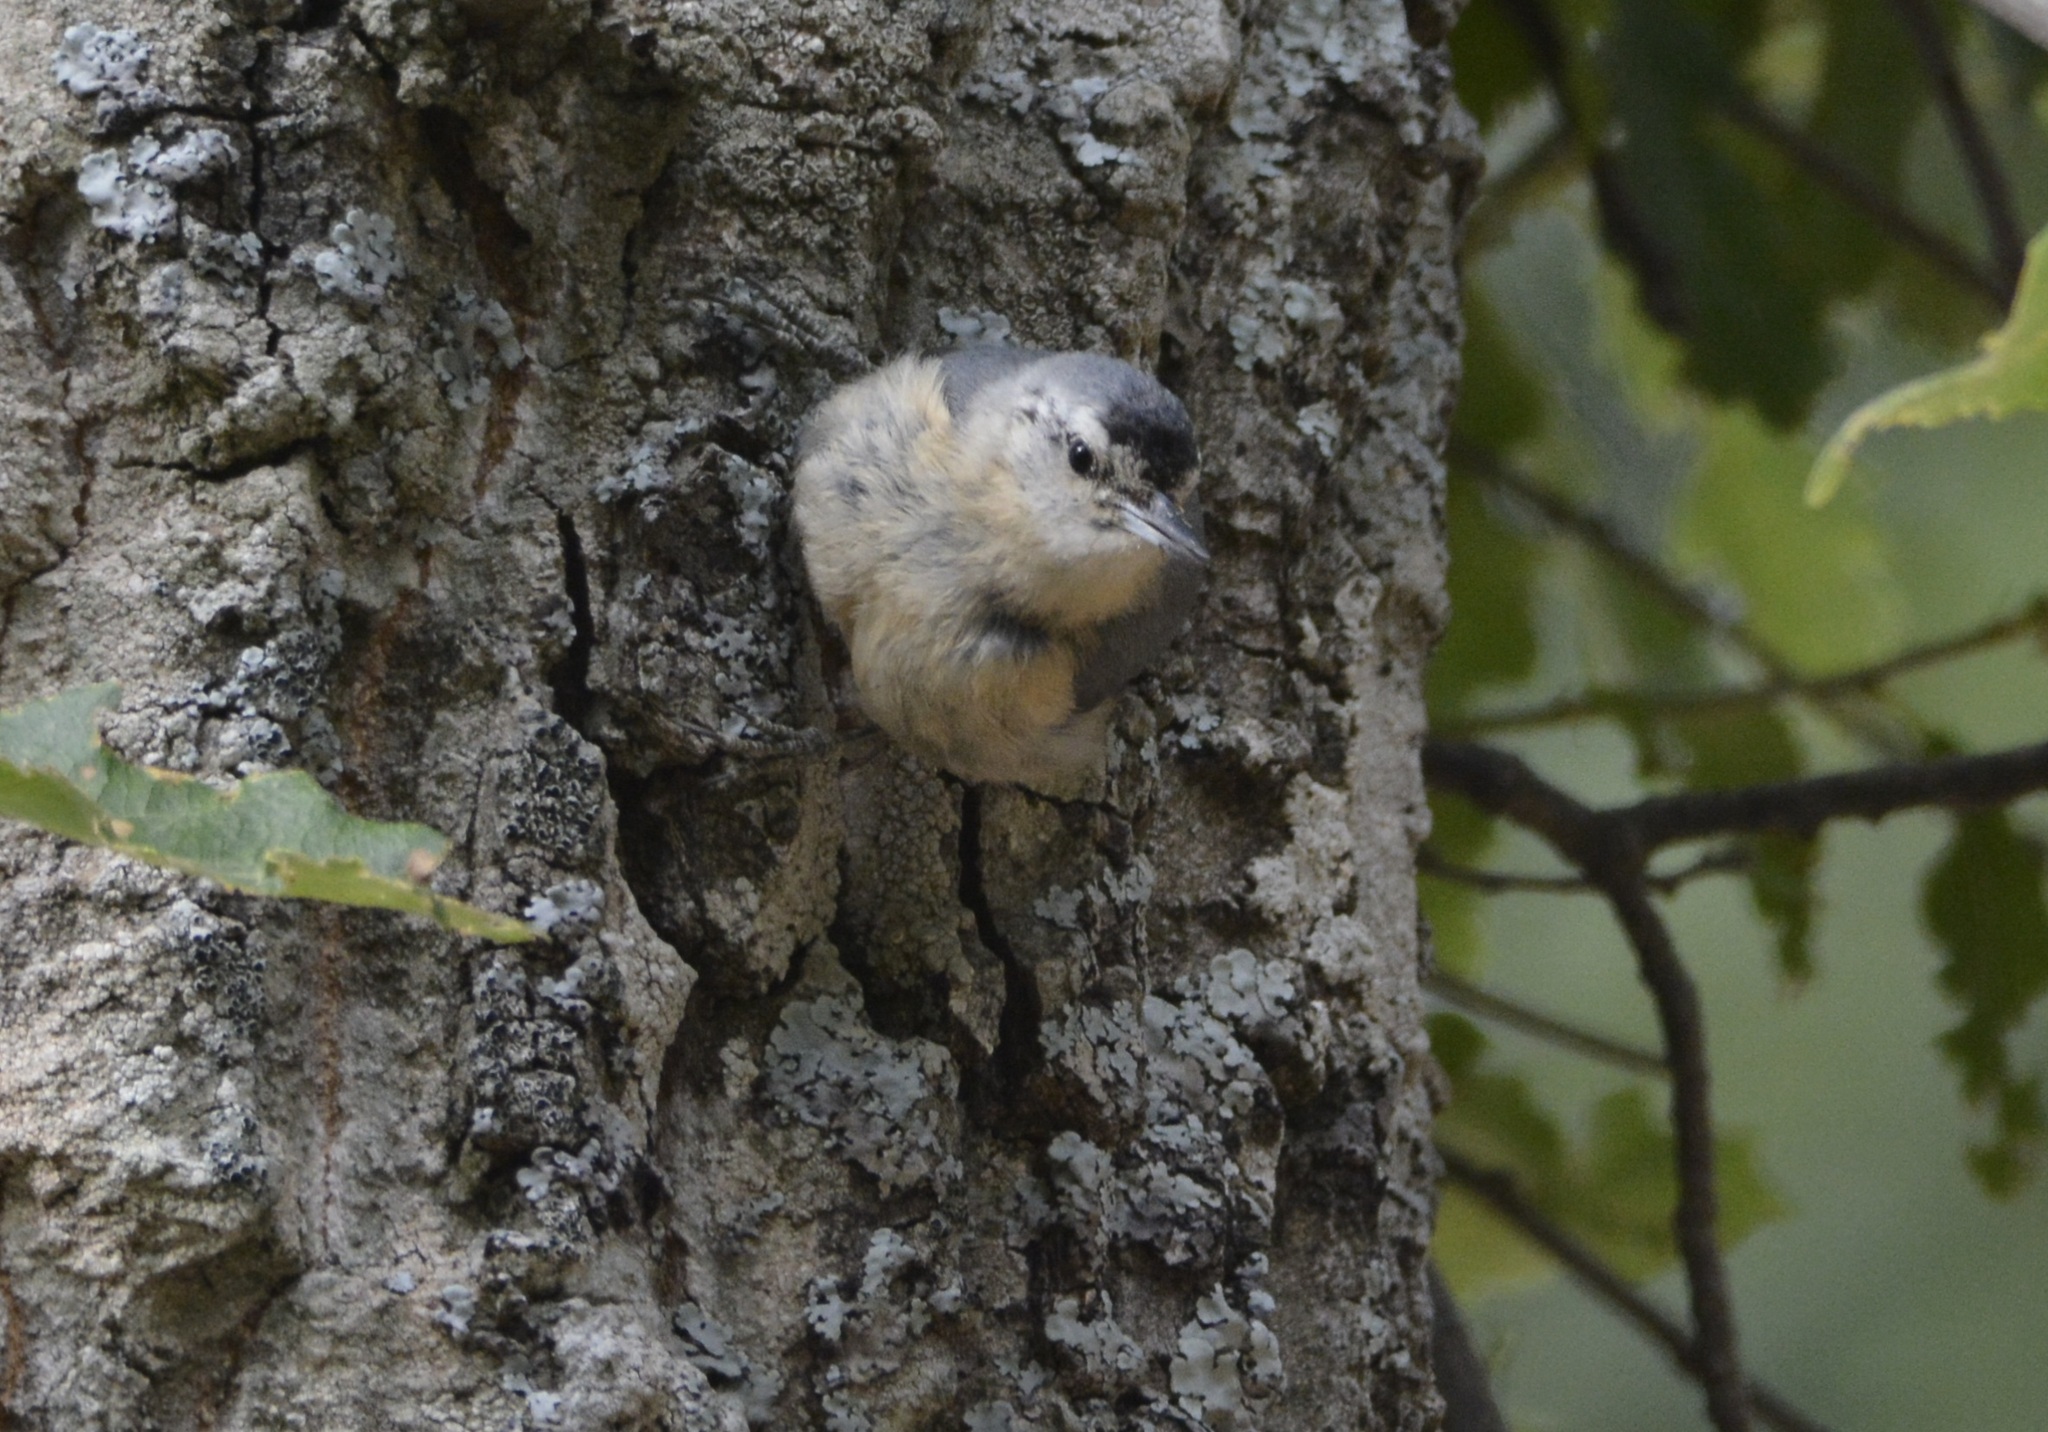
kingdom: Animalia
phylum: Chordata
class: Aves
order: Passeriformes
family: Sittidae
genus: Sitta
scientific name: Sitta ledanti
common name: Algerian nuthatch
